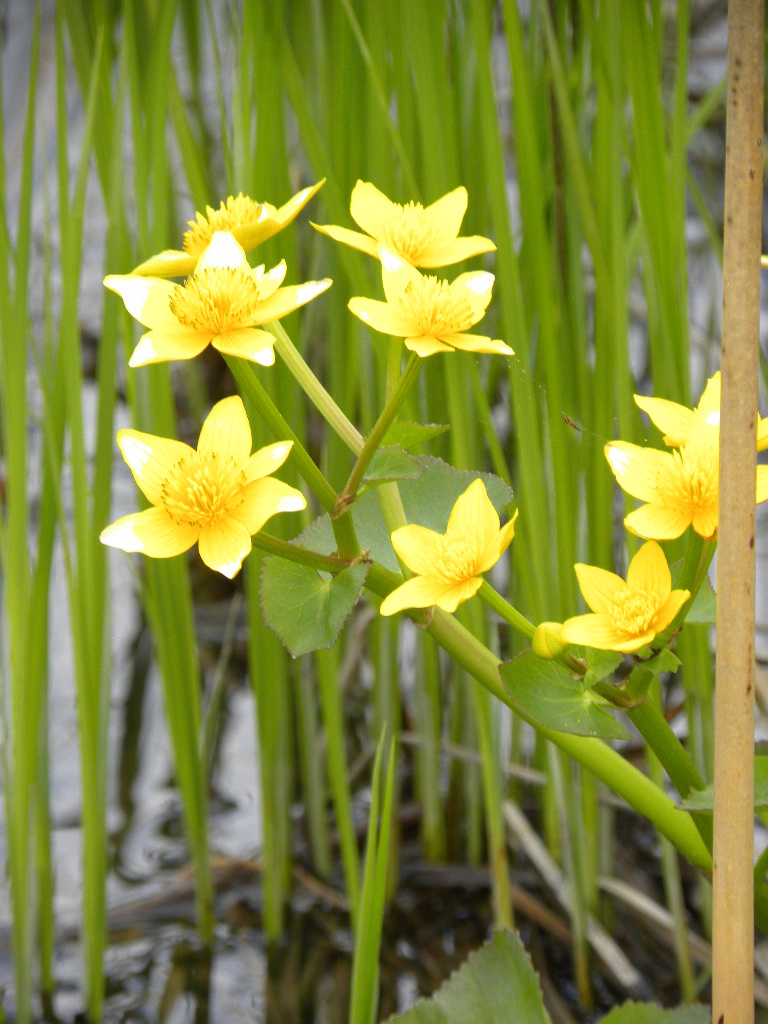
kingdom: Plantae
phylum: Tracheophyta
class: Magnoliopsida
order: Ranunculales
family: Ranunculaceae
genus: Caltha
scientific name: Caltha palustris
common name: Marsh marigold
